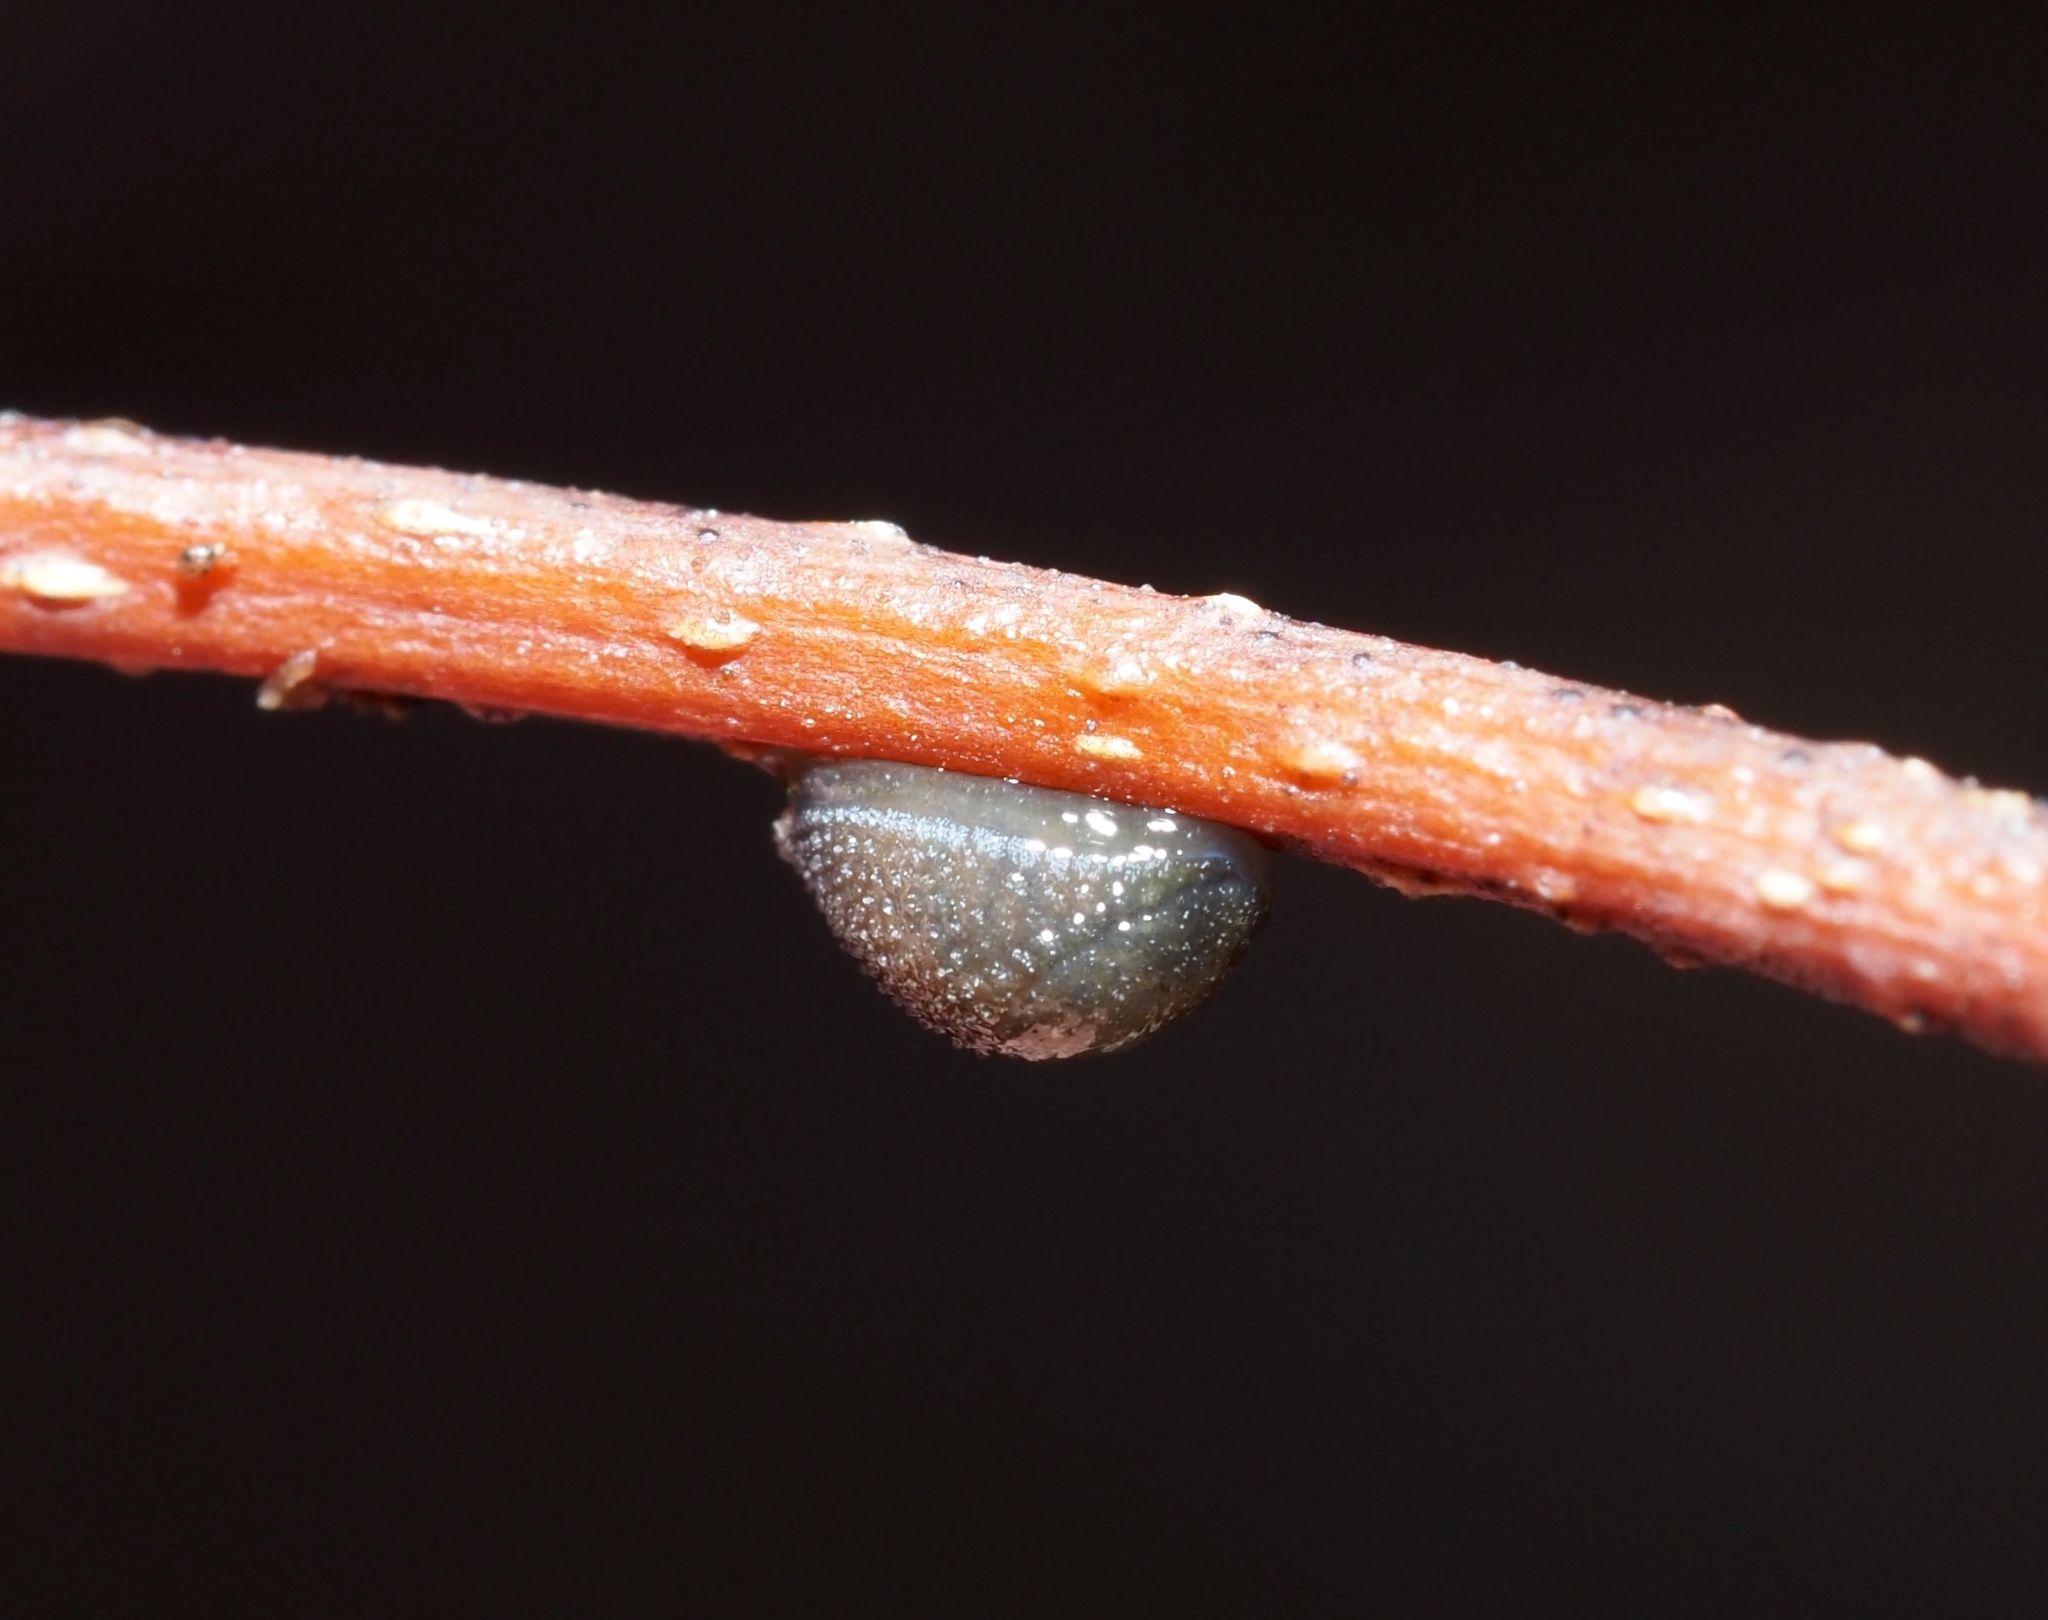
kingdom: Animalia
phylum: Mollusca
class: Gastropoda
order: Stylommatophora
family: Arionidae
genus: Arion
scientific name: Arion intermedius
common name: Hedgehog slug
